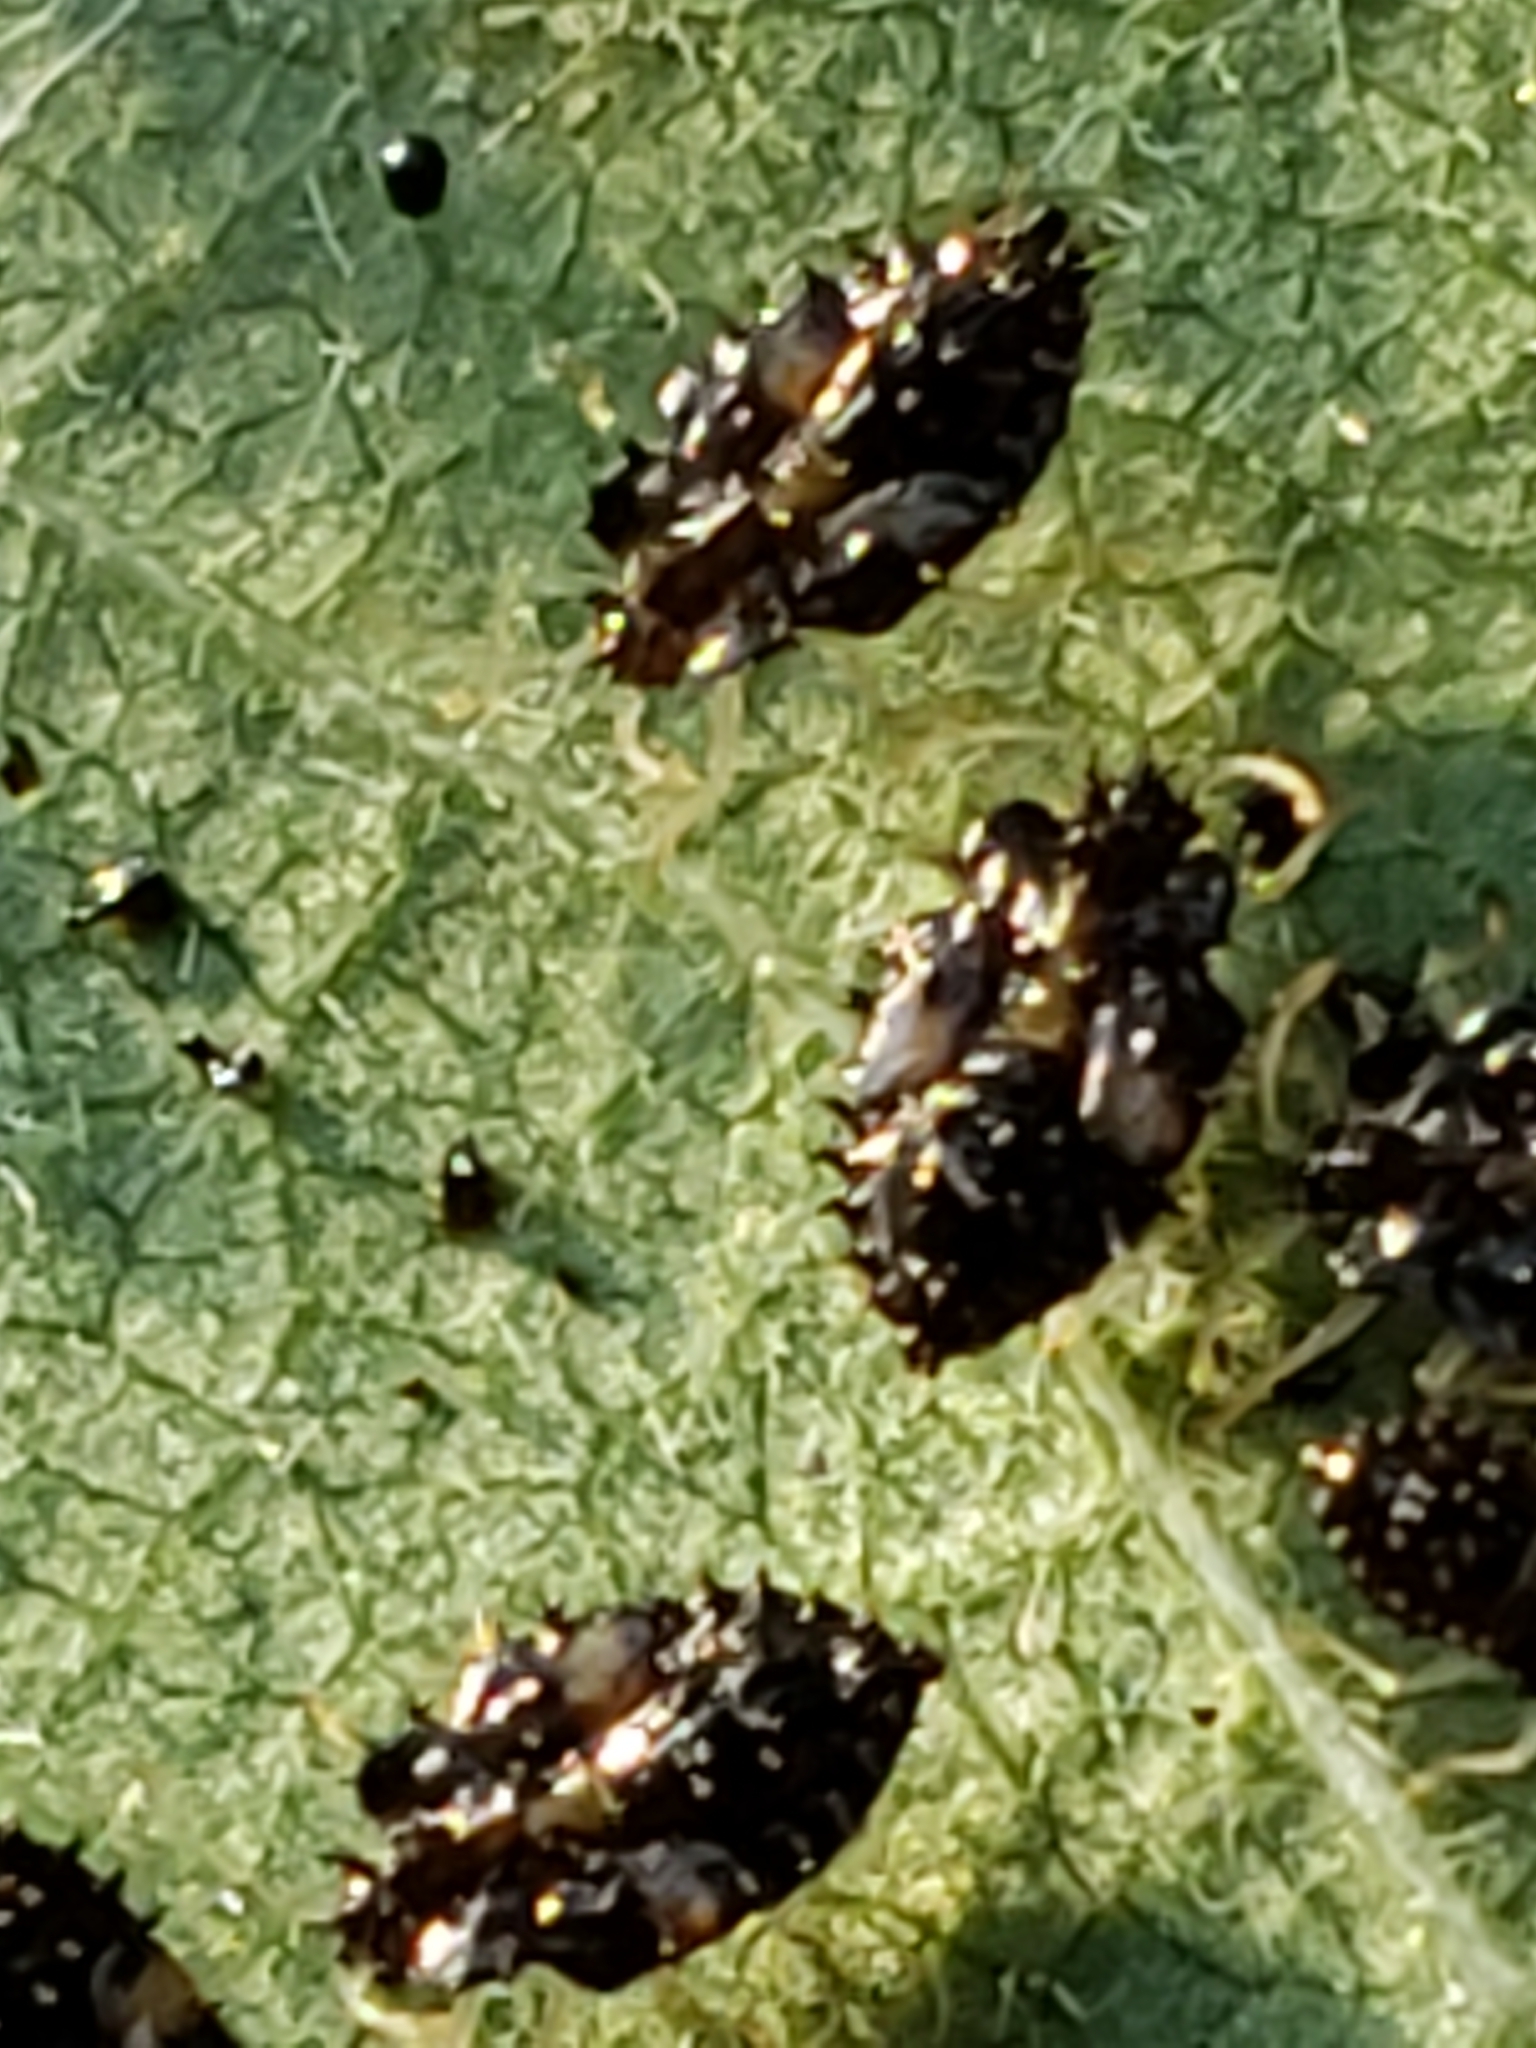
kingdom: Animalia
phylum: Arthropoda
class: Insecta
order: Hemiptera
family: Tingidae
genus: Corythucha
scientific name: Corythucha bulbosa
